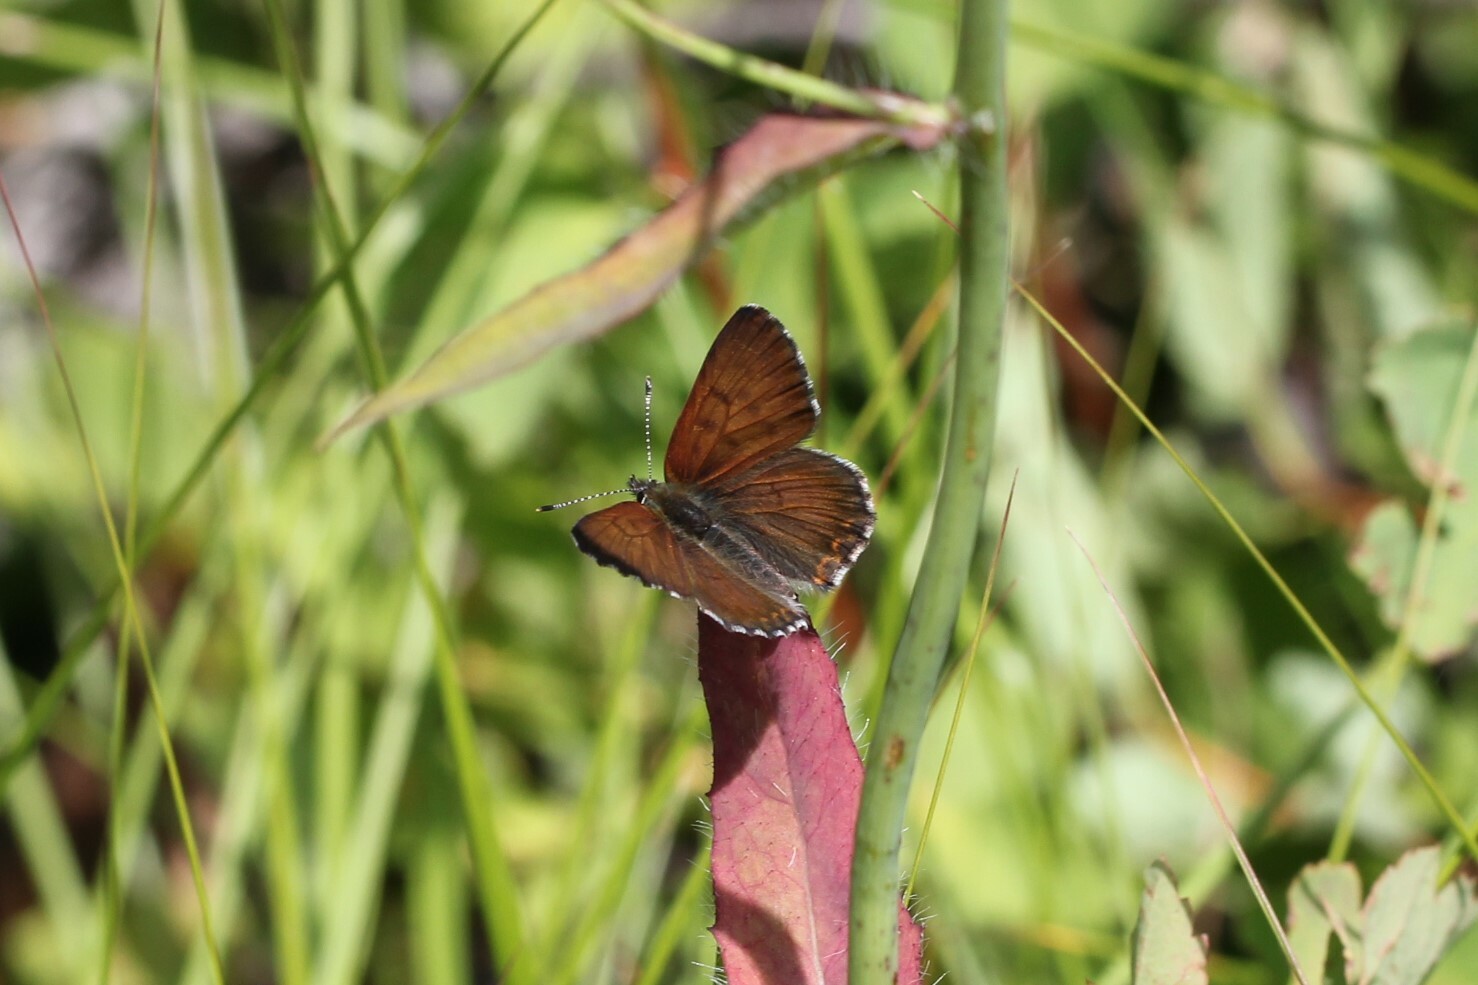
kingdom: Animalia
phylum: Arthropoda
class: Insecta
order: Lepidoptera
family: Lycaenidae
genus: Tharsalea
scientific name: Tharsalea mariposa
